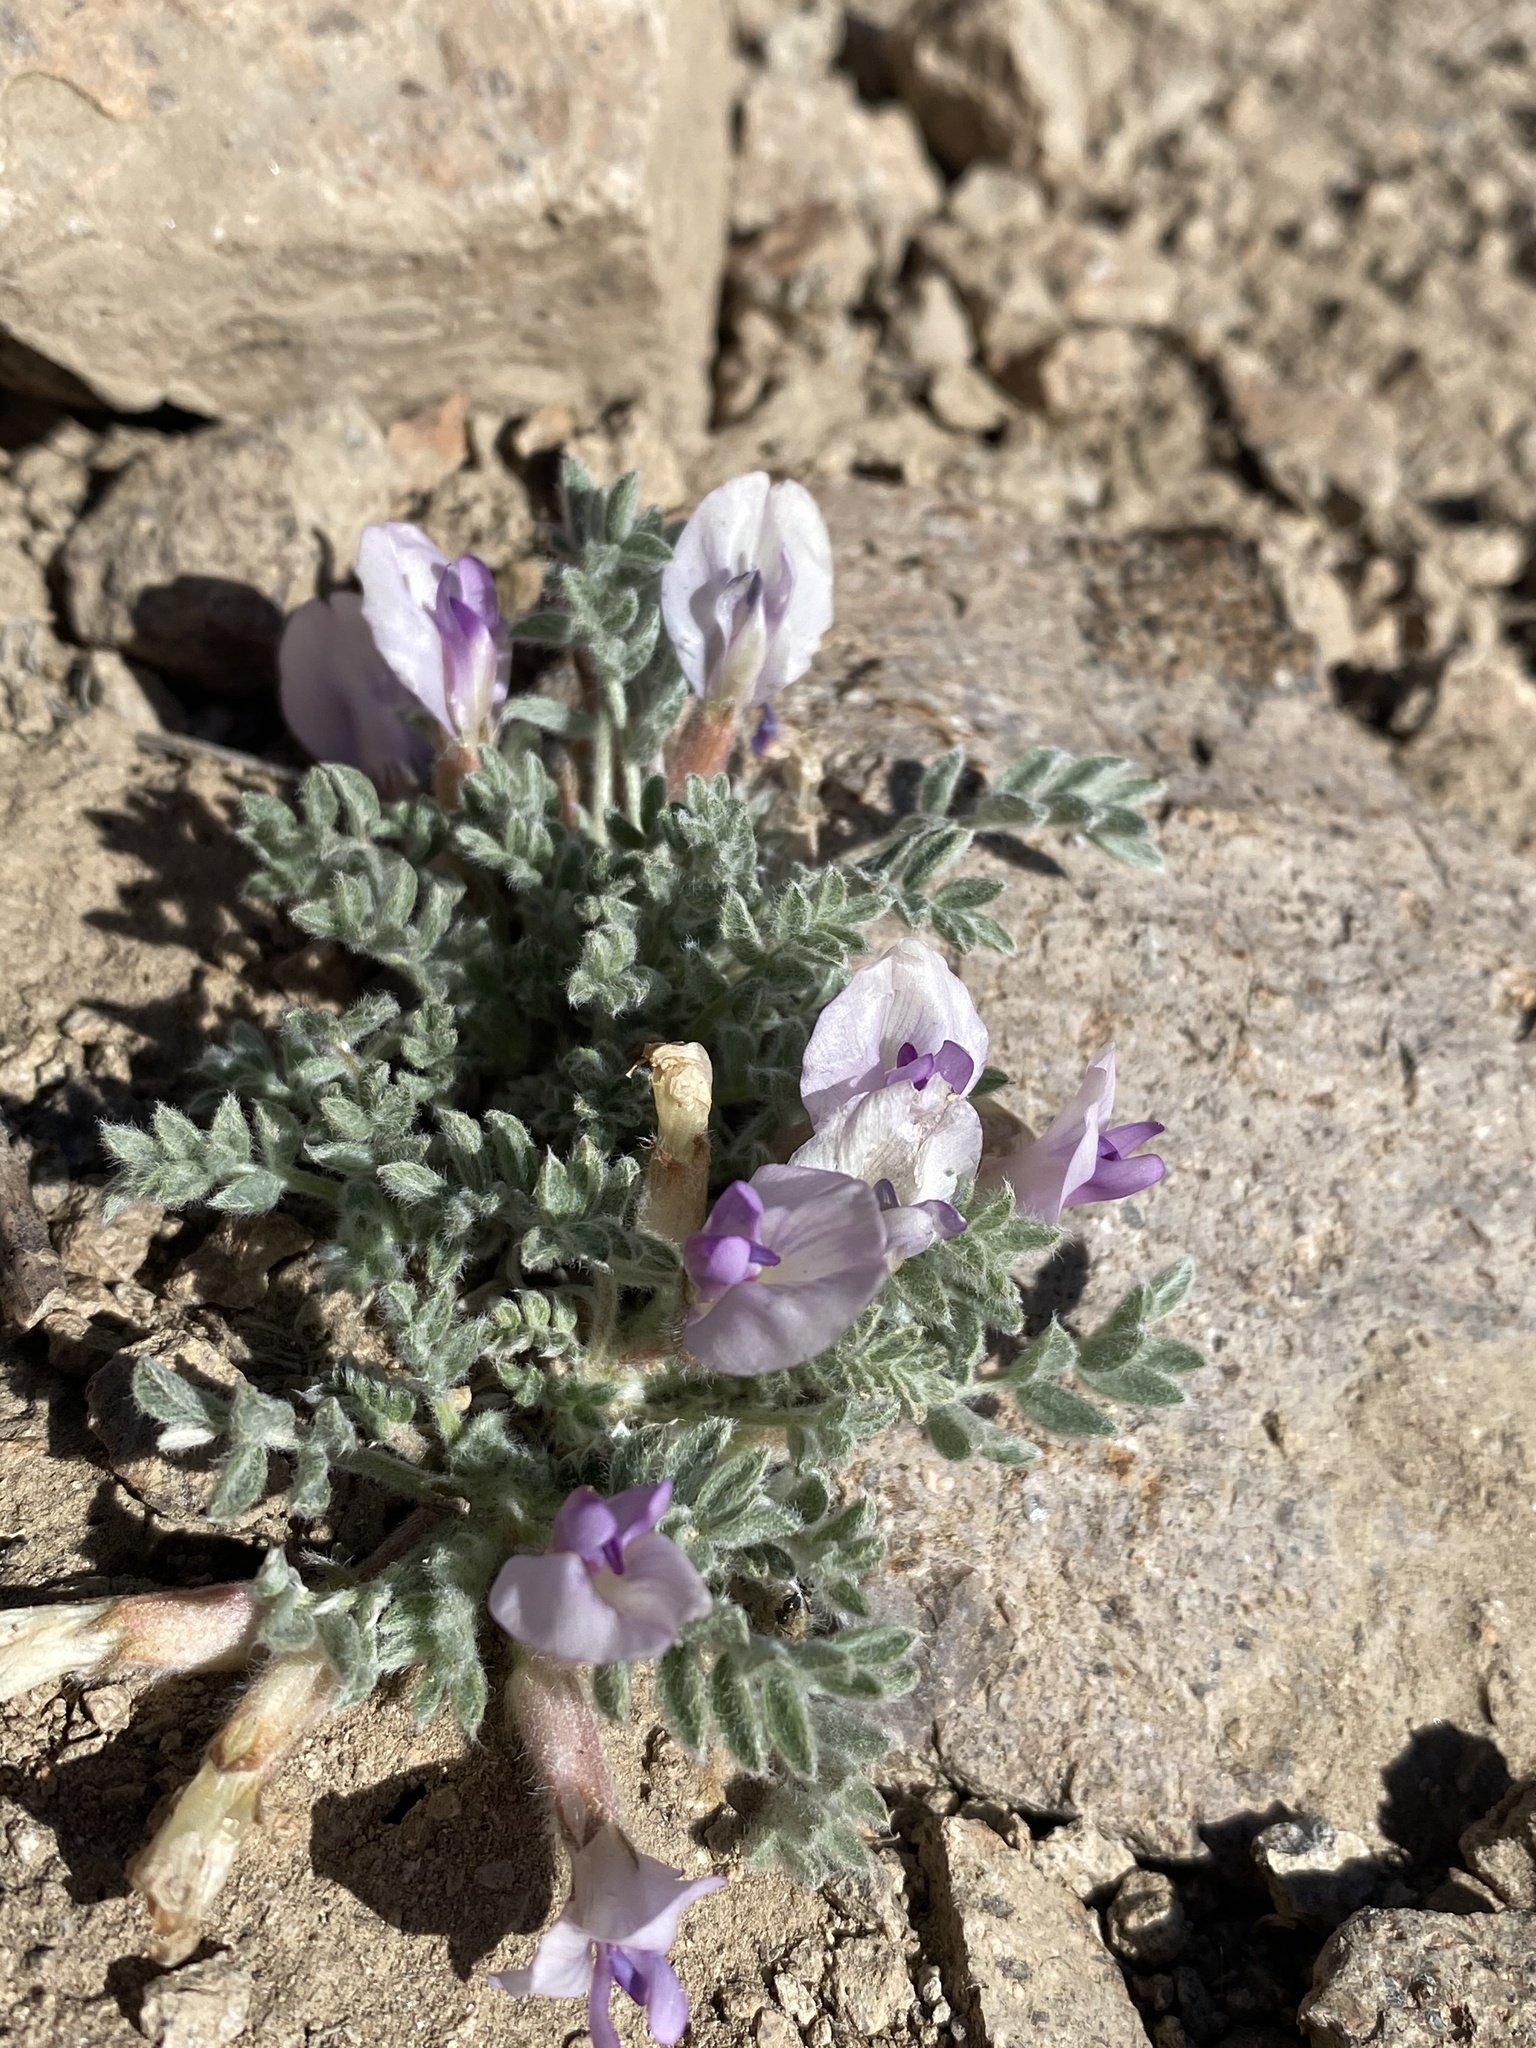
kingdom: Plantae
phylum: Tracheophyta
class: Magnoliopsida
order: Fabales
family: Fabaceae
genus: Astragalus
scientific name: Astragalus purshii
